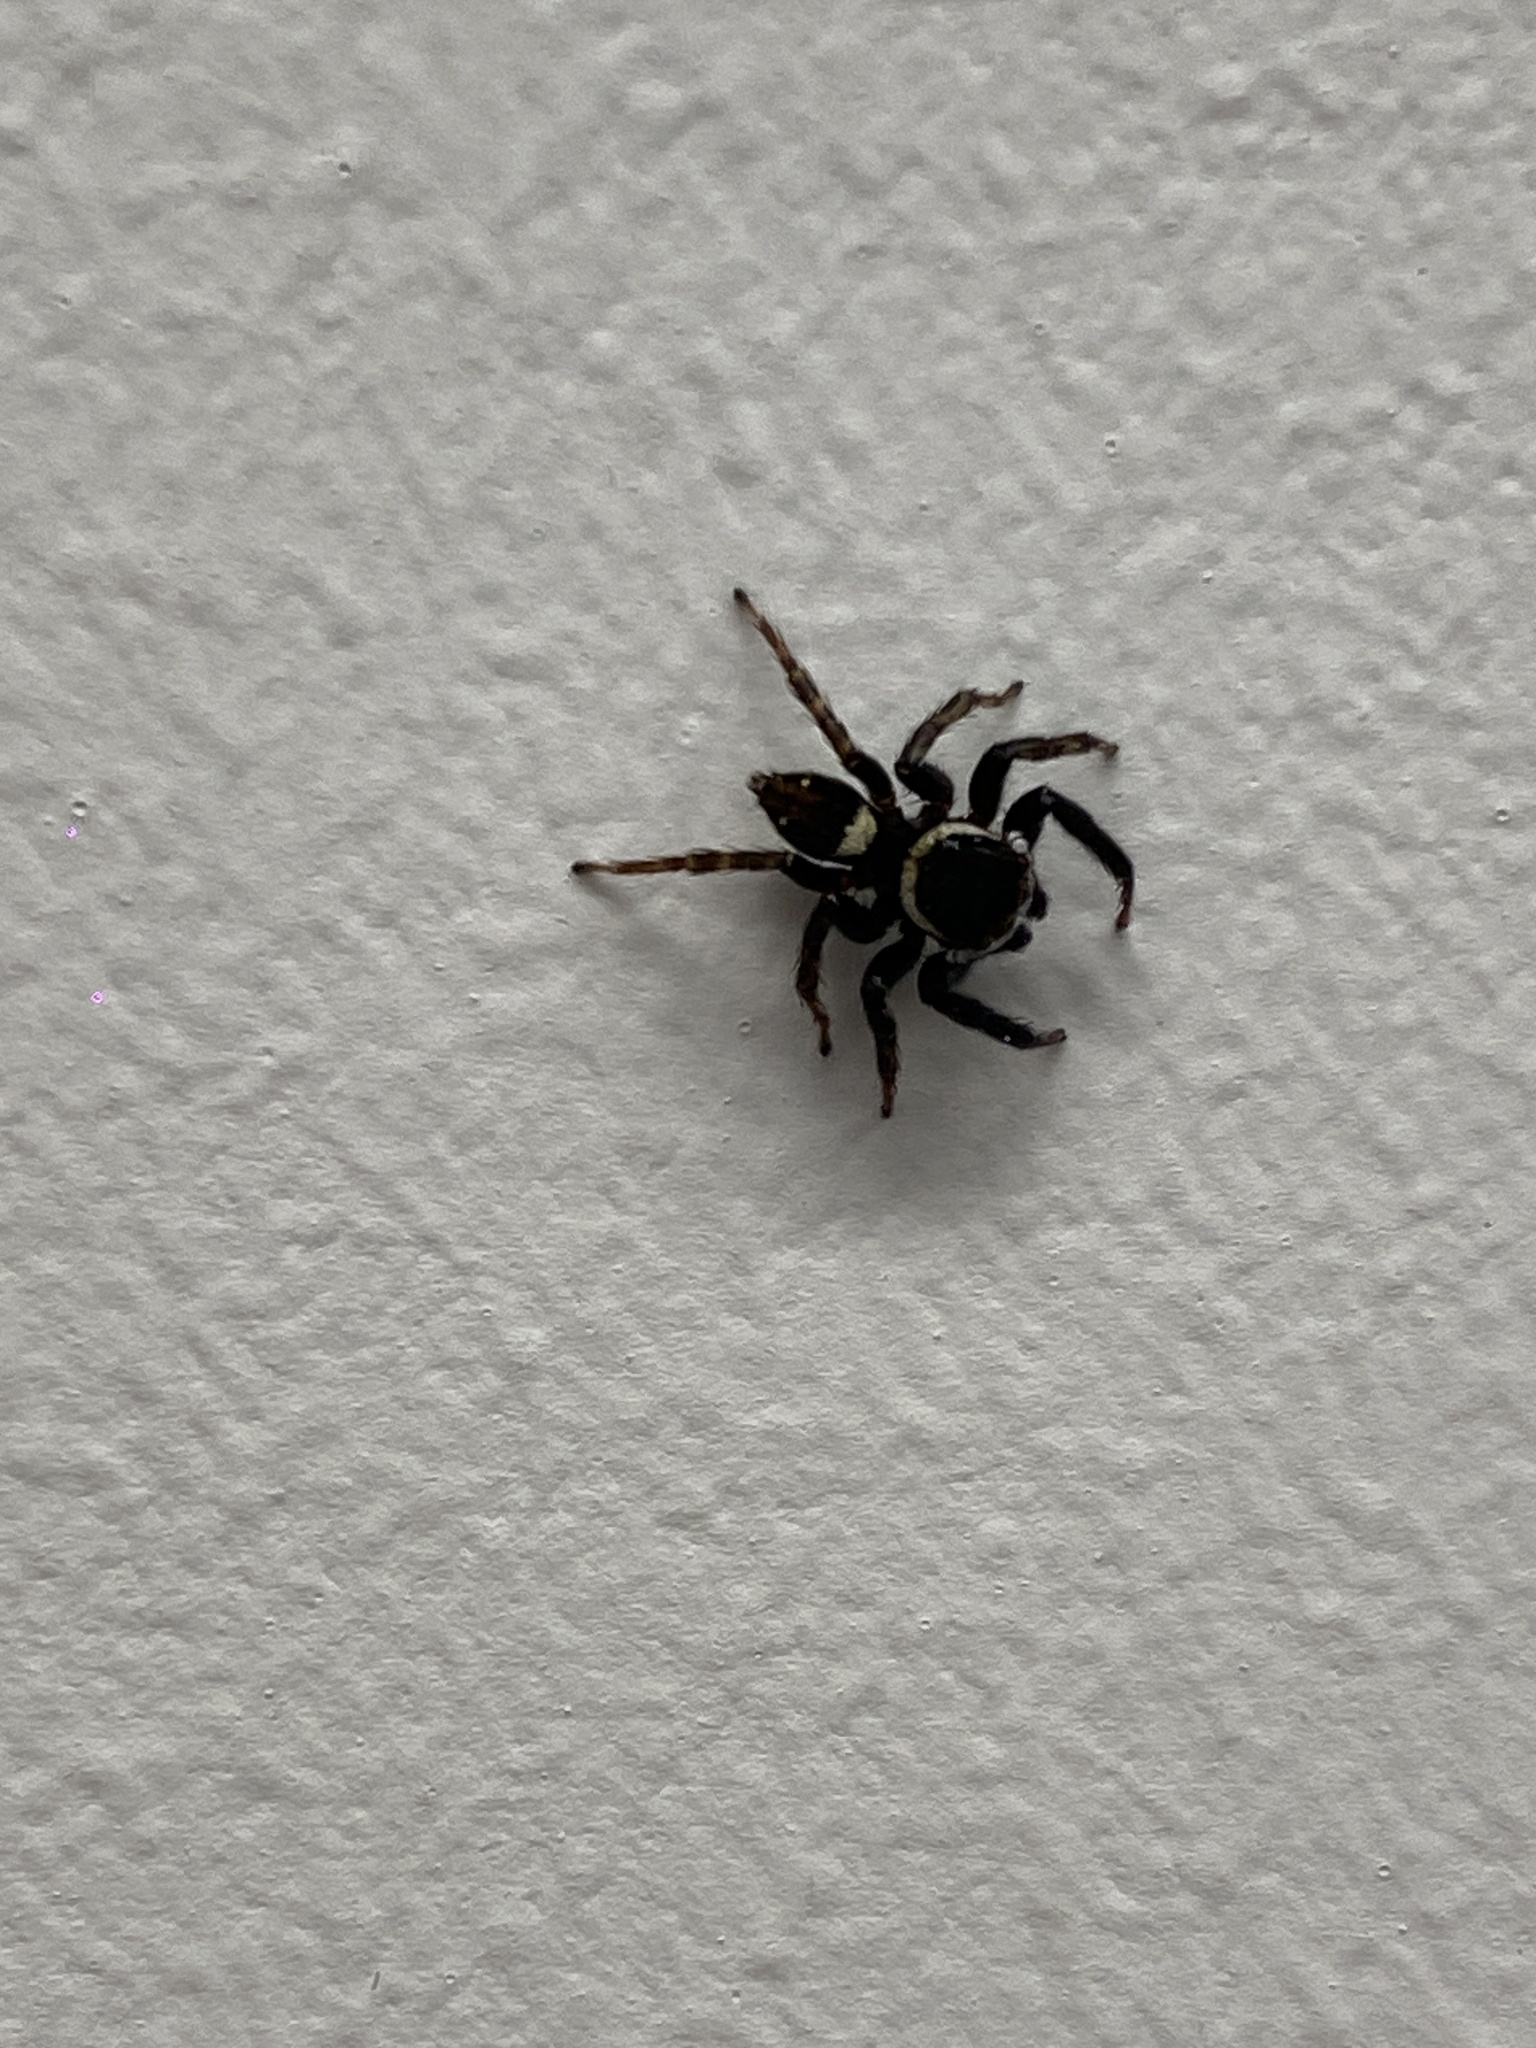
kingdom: Animalia
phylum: Arthropoda
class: Arachnida
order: Araneae
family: Salticidae
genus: Hasarius
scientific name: Hasarius adansoni
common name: Jumping spider
